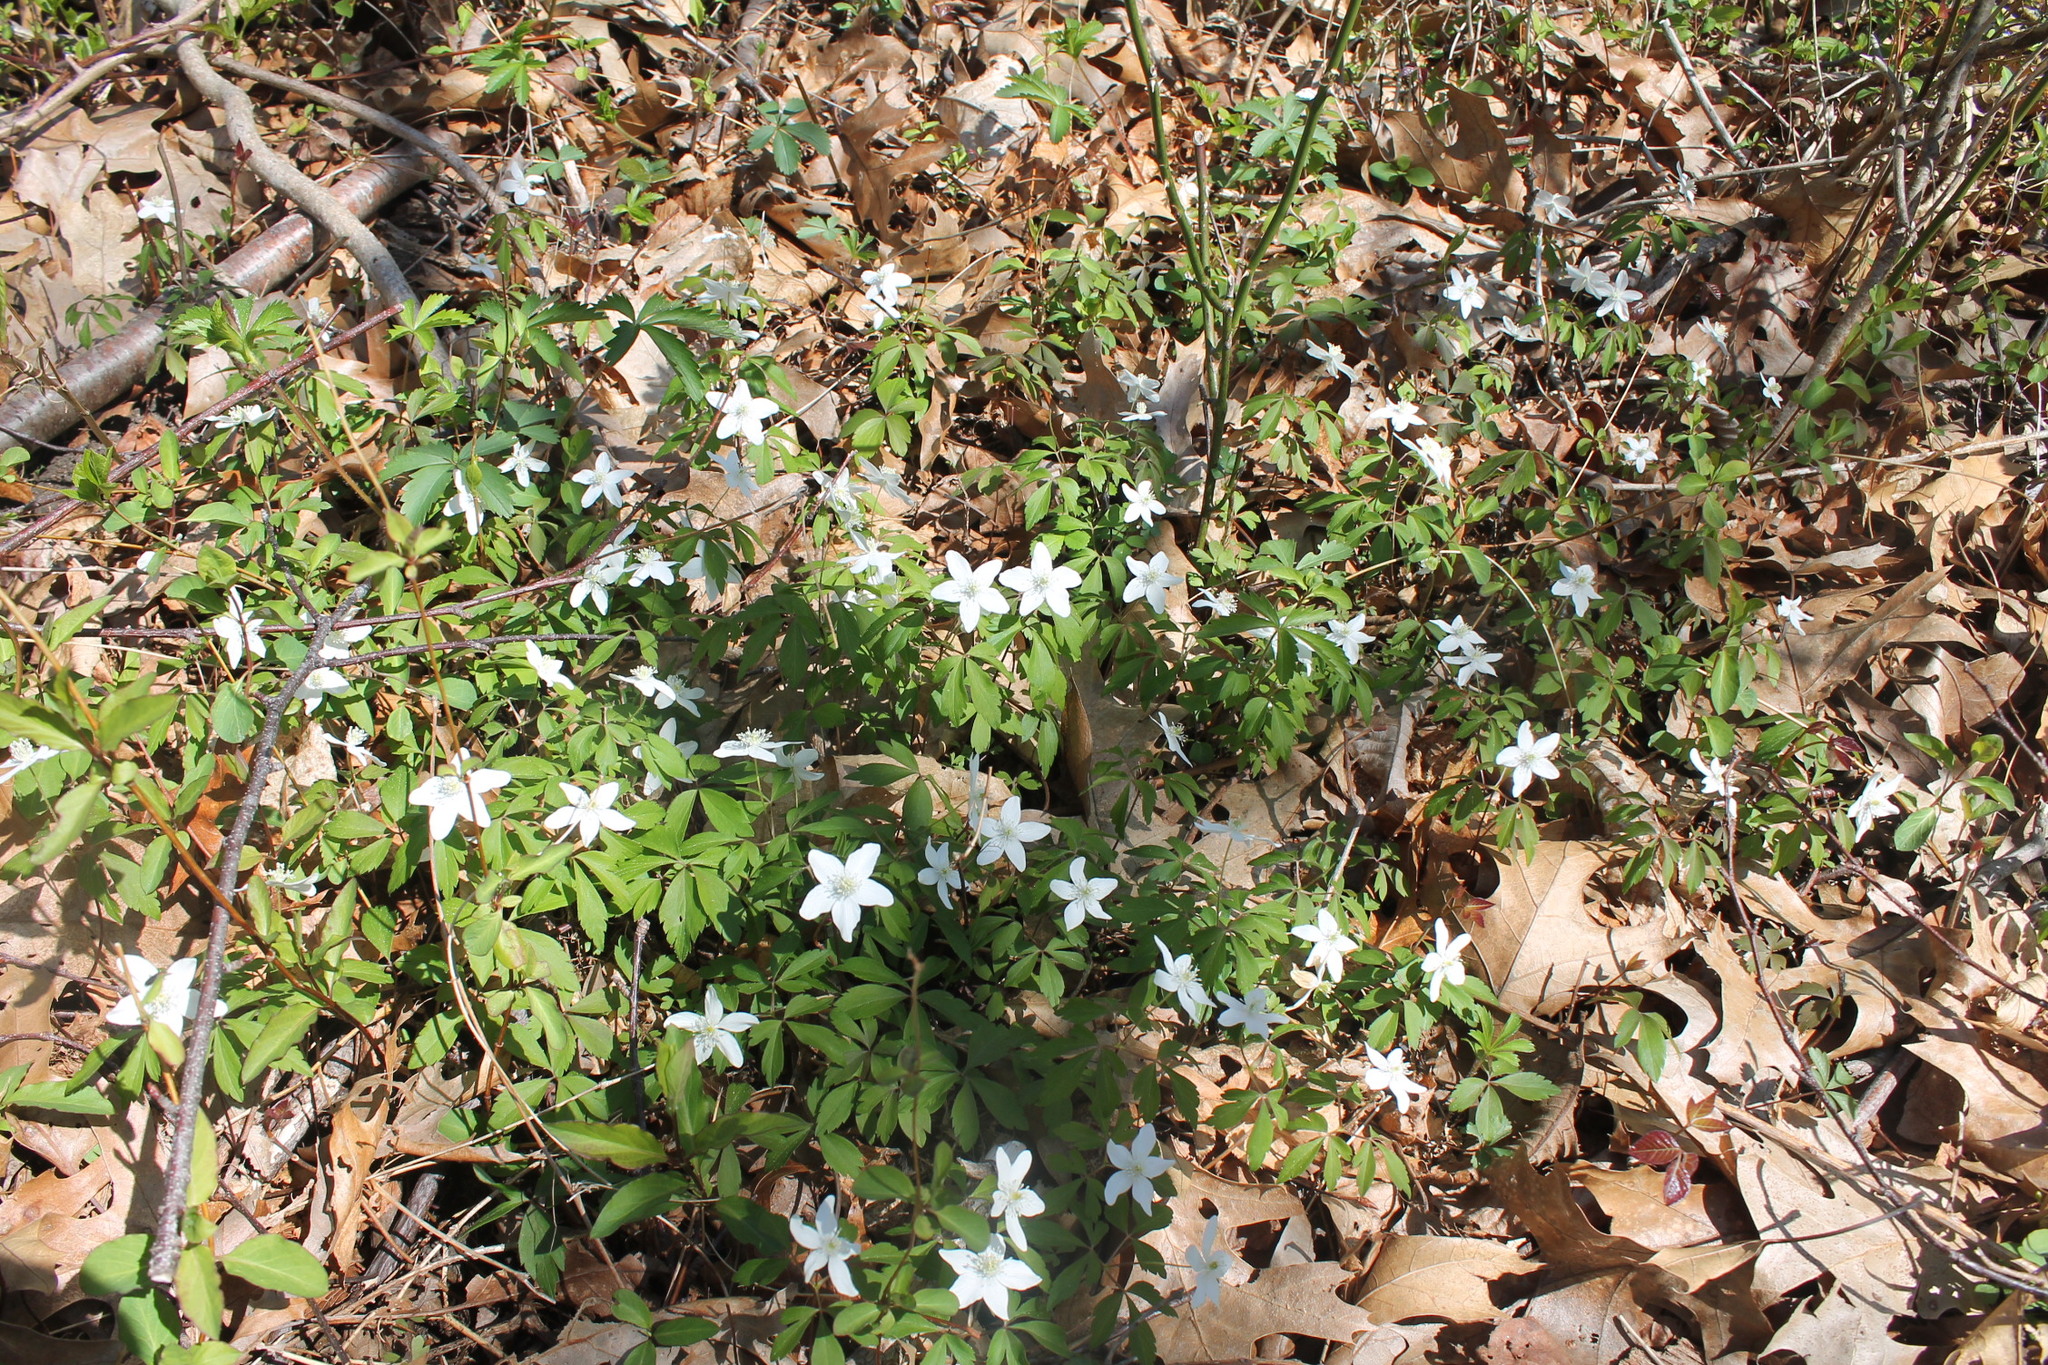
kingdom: Plantae
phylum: Tracheophyta
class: Magnoliopsida
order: Ranunculales
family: Ranunculaceae
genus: Anemone
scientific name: Anemone quinquefolia
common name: Wood anemone
